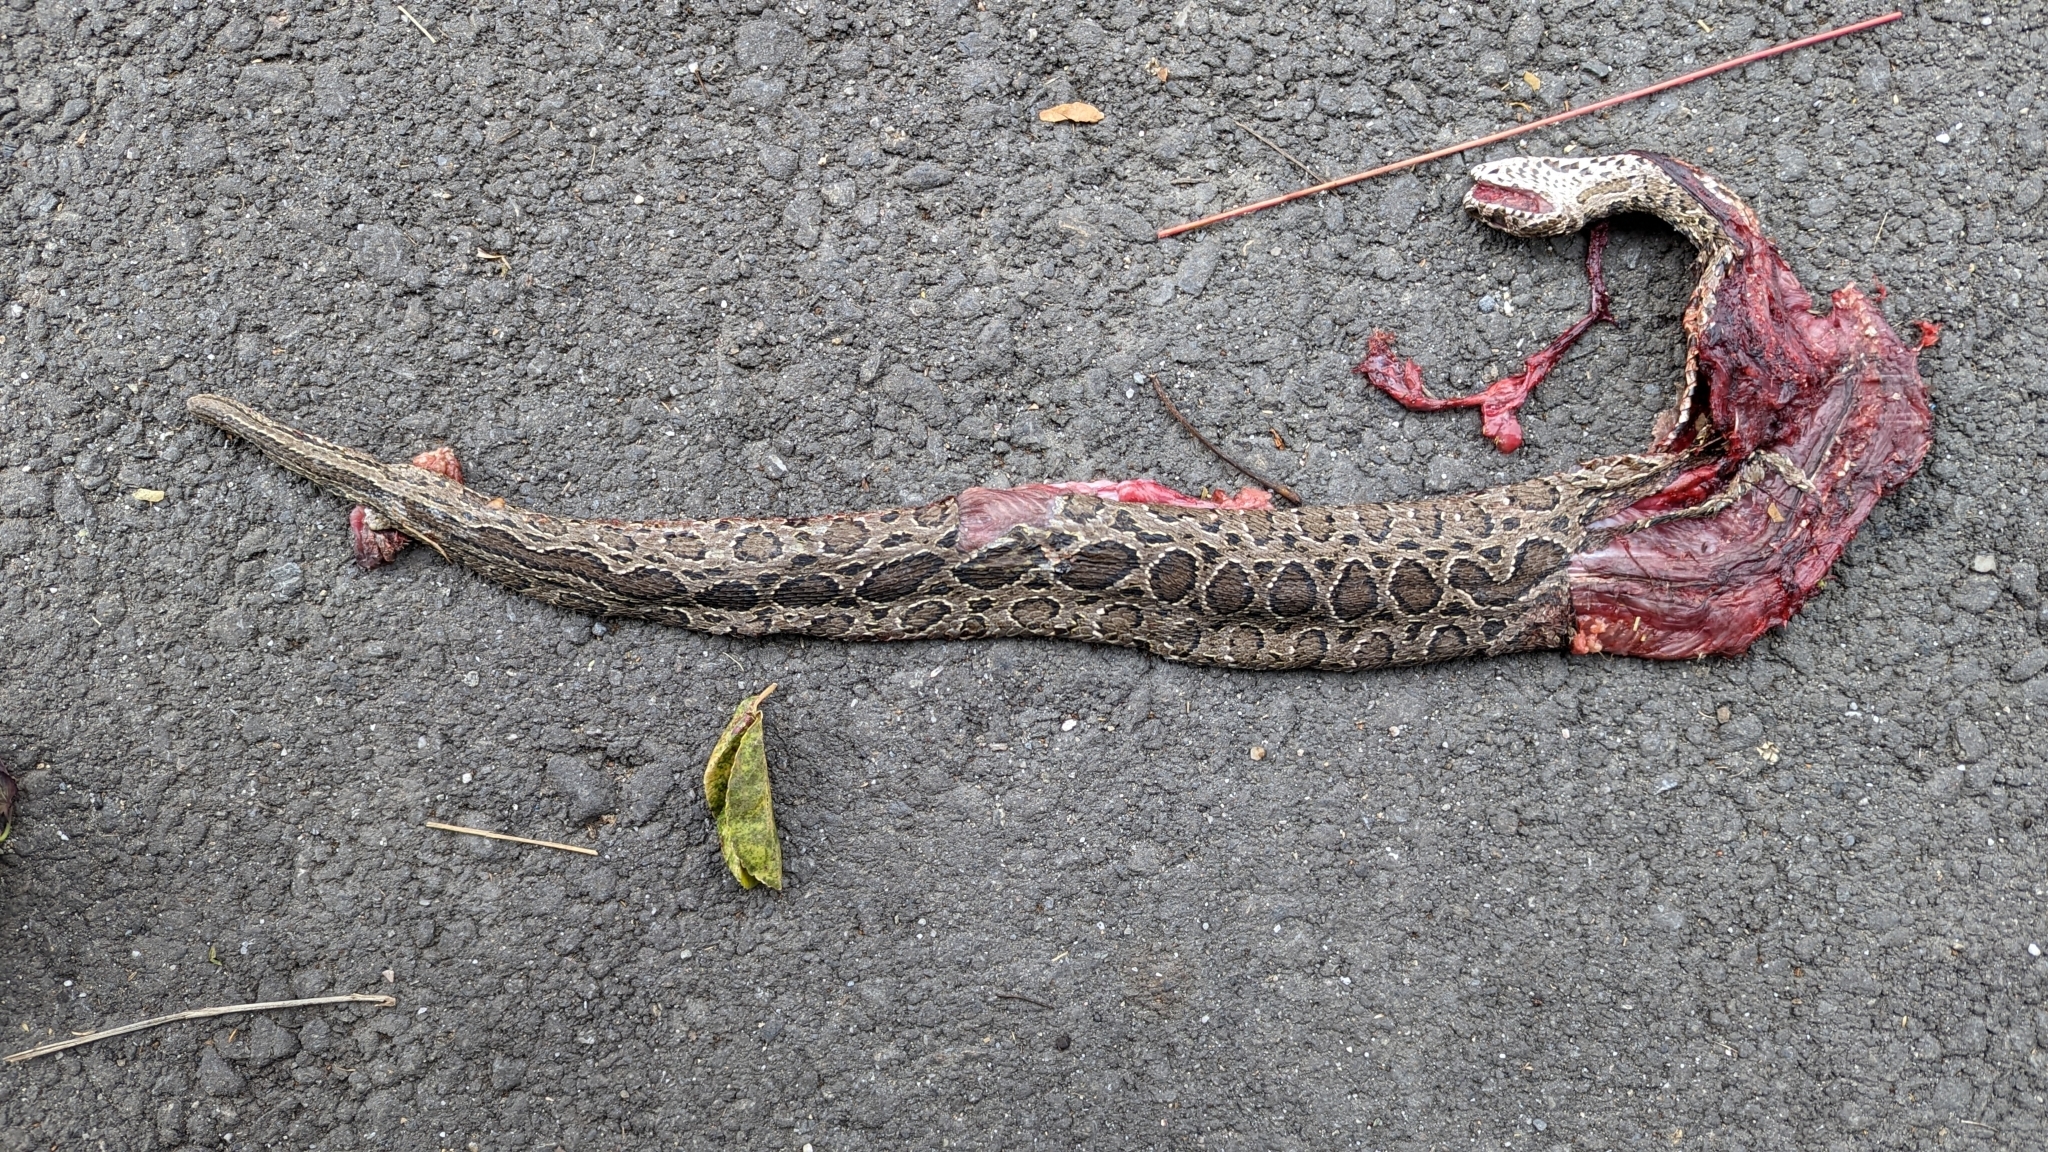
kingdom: Animalia
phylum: Chordata
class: Squamata
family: Viperidae
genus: Daboia
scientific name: Daboia siamensis
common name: Eastern russell's viper
